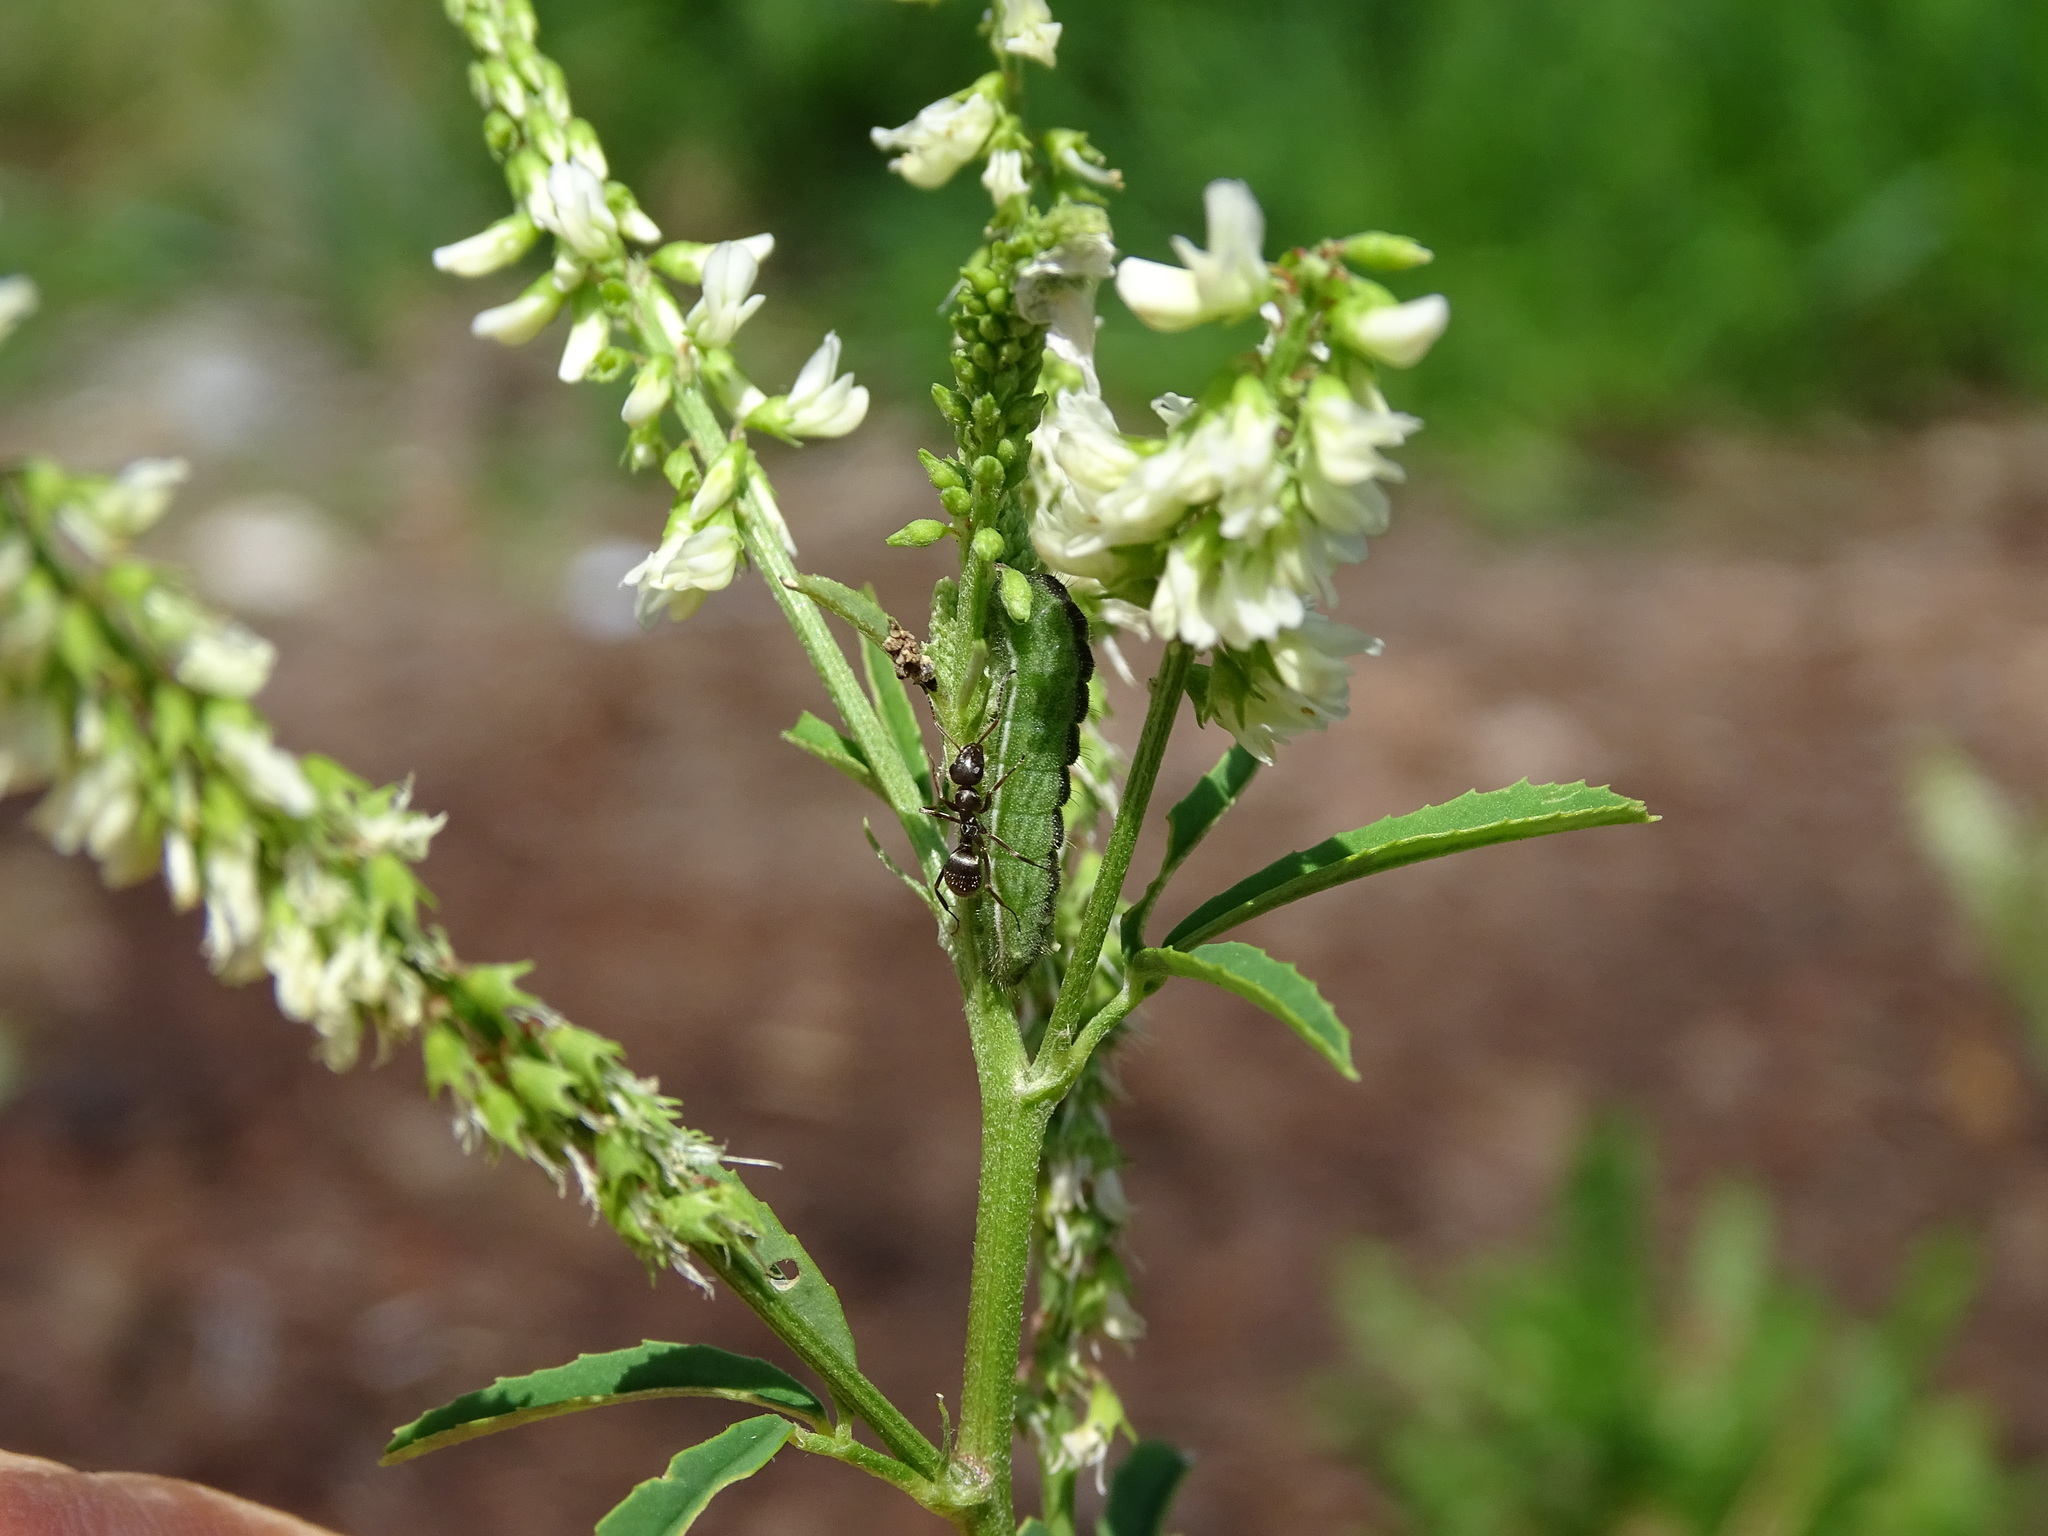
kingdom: Animalia
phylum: Arthropoda
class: Insecta
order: Lepidoptera
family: Lycaenidae
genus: Lycaeides
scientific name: Lycaeides idas
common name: Northern blue
